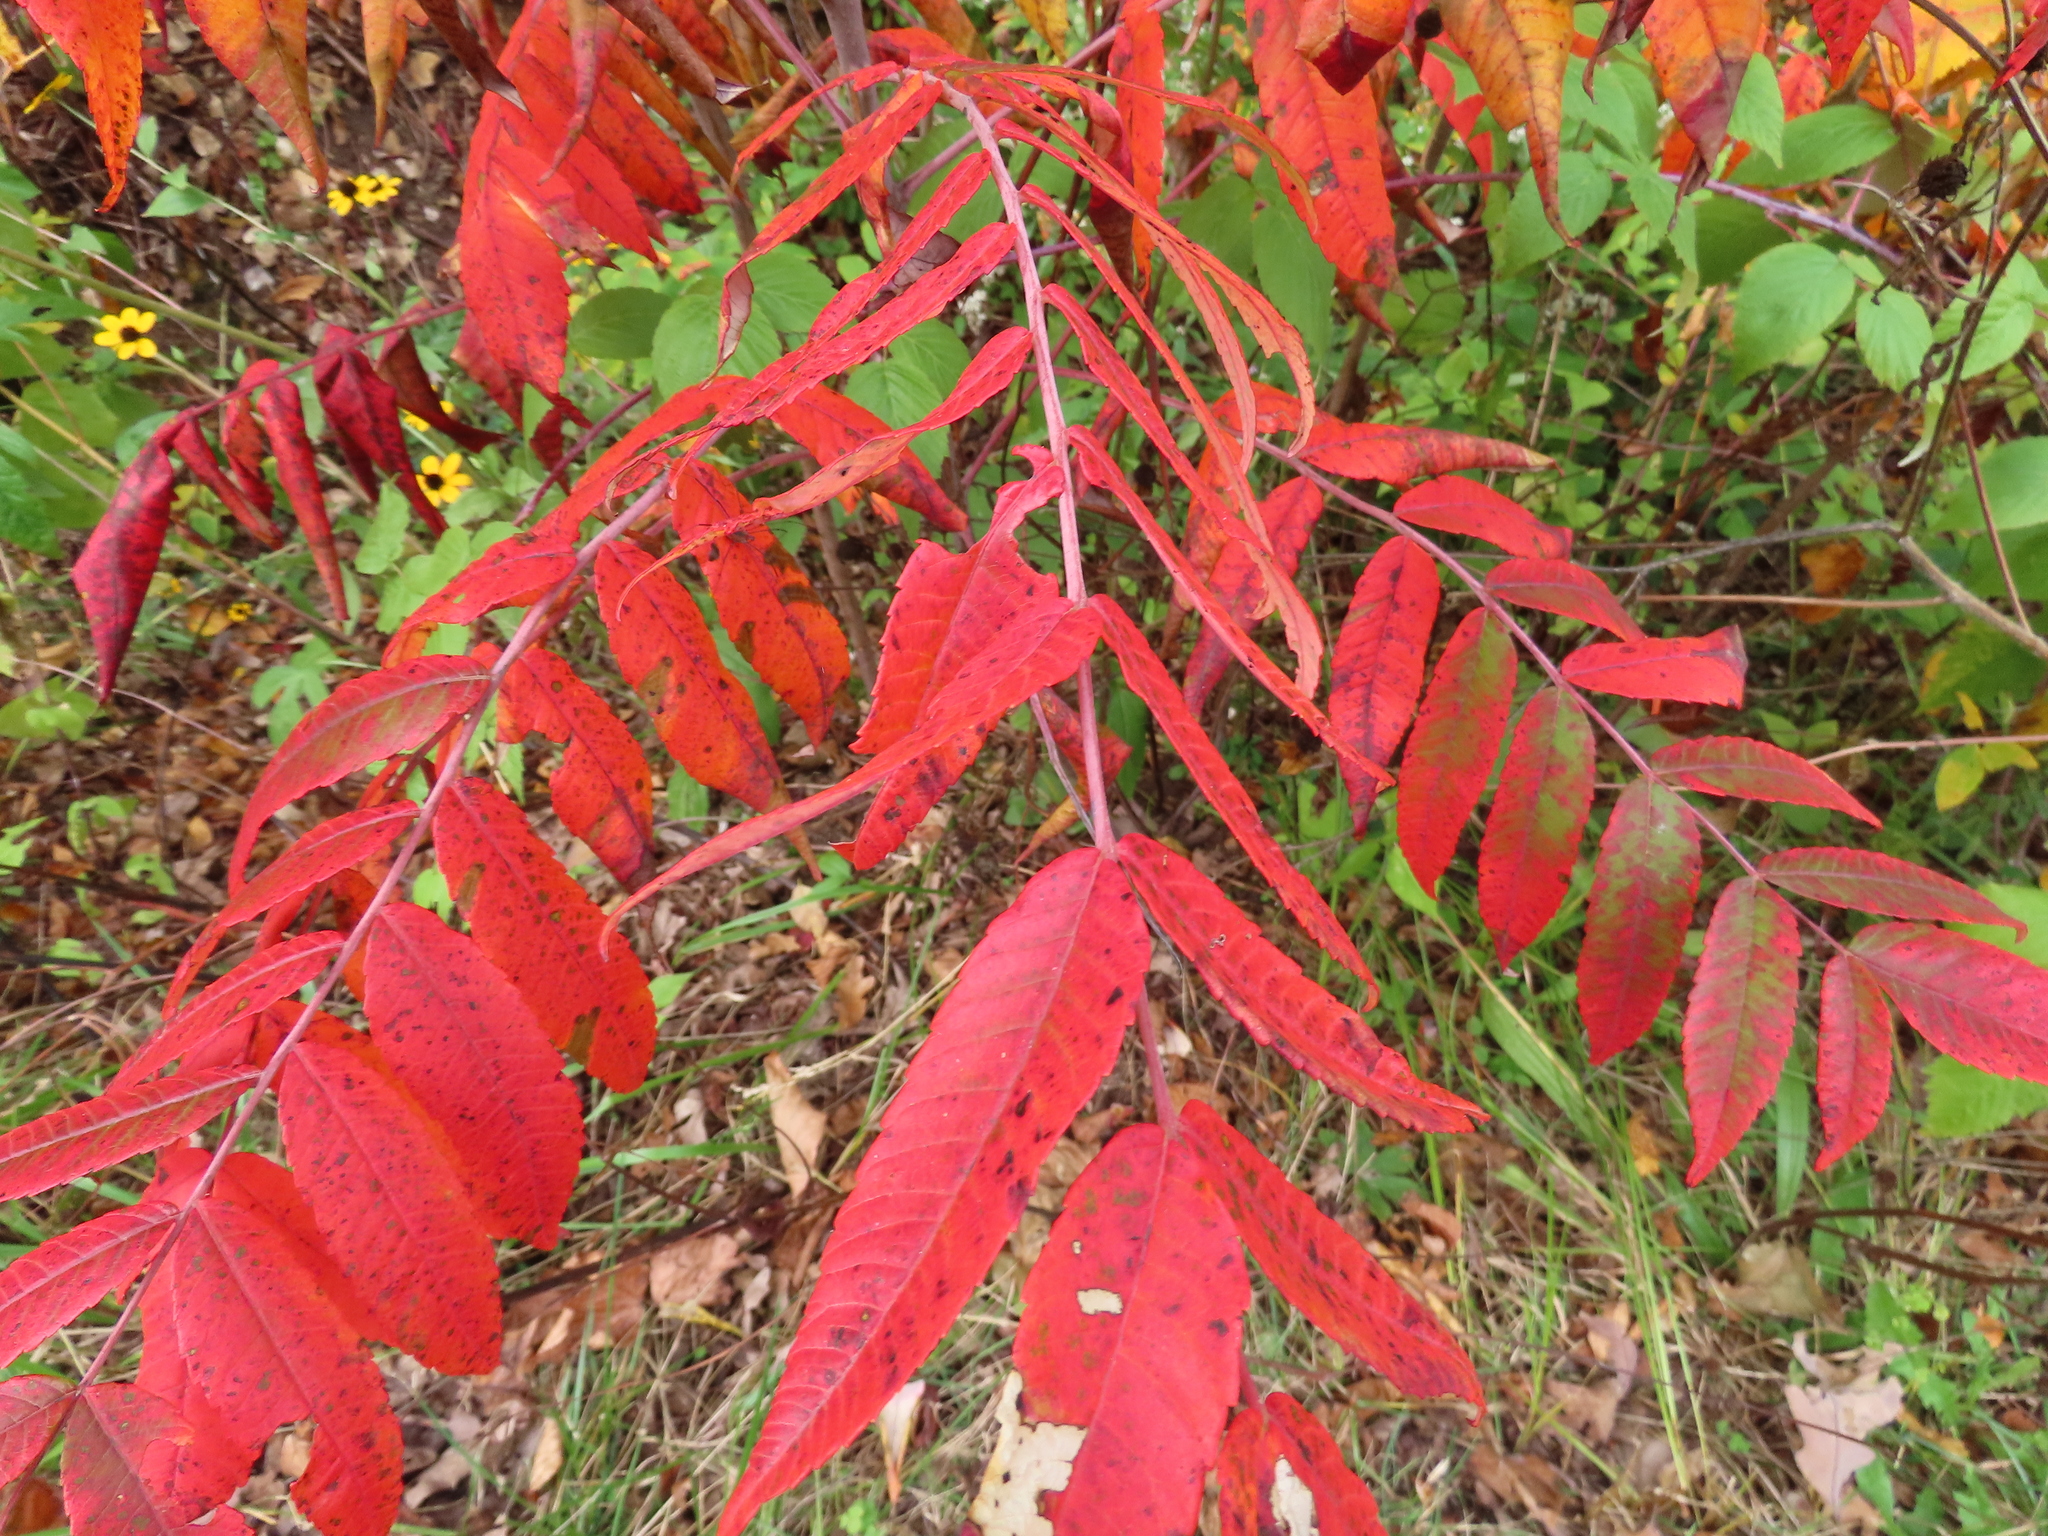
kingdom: Plantae
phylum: Tracheophyta
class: Magnoliopsida
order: Sapindales
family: Anacardiaceae
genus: Rhus
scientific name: Rhus glabra
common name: Scarlet sumac
